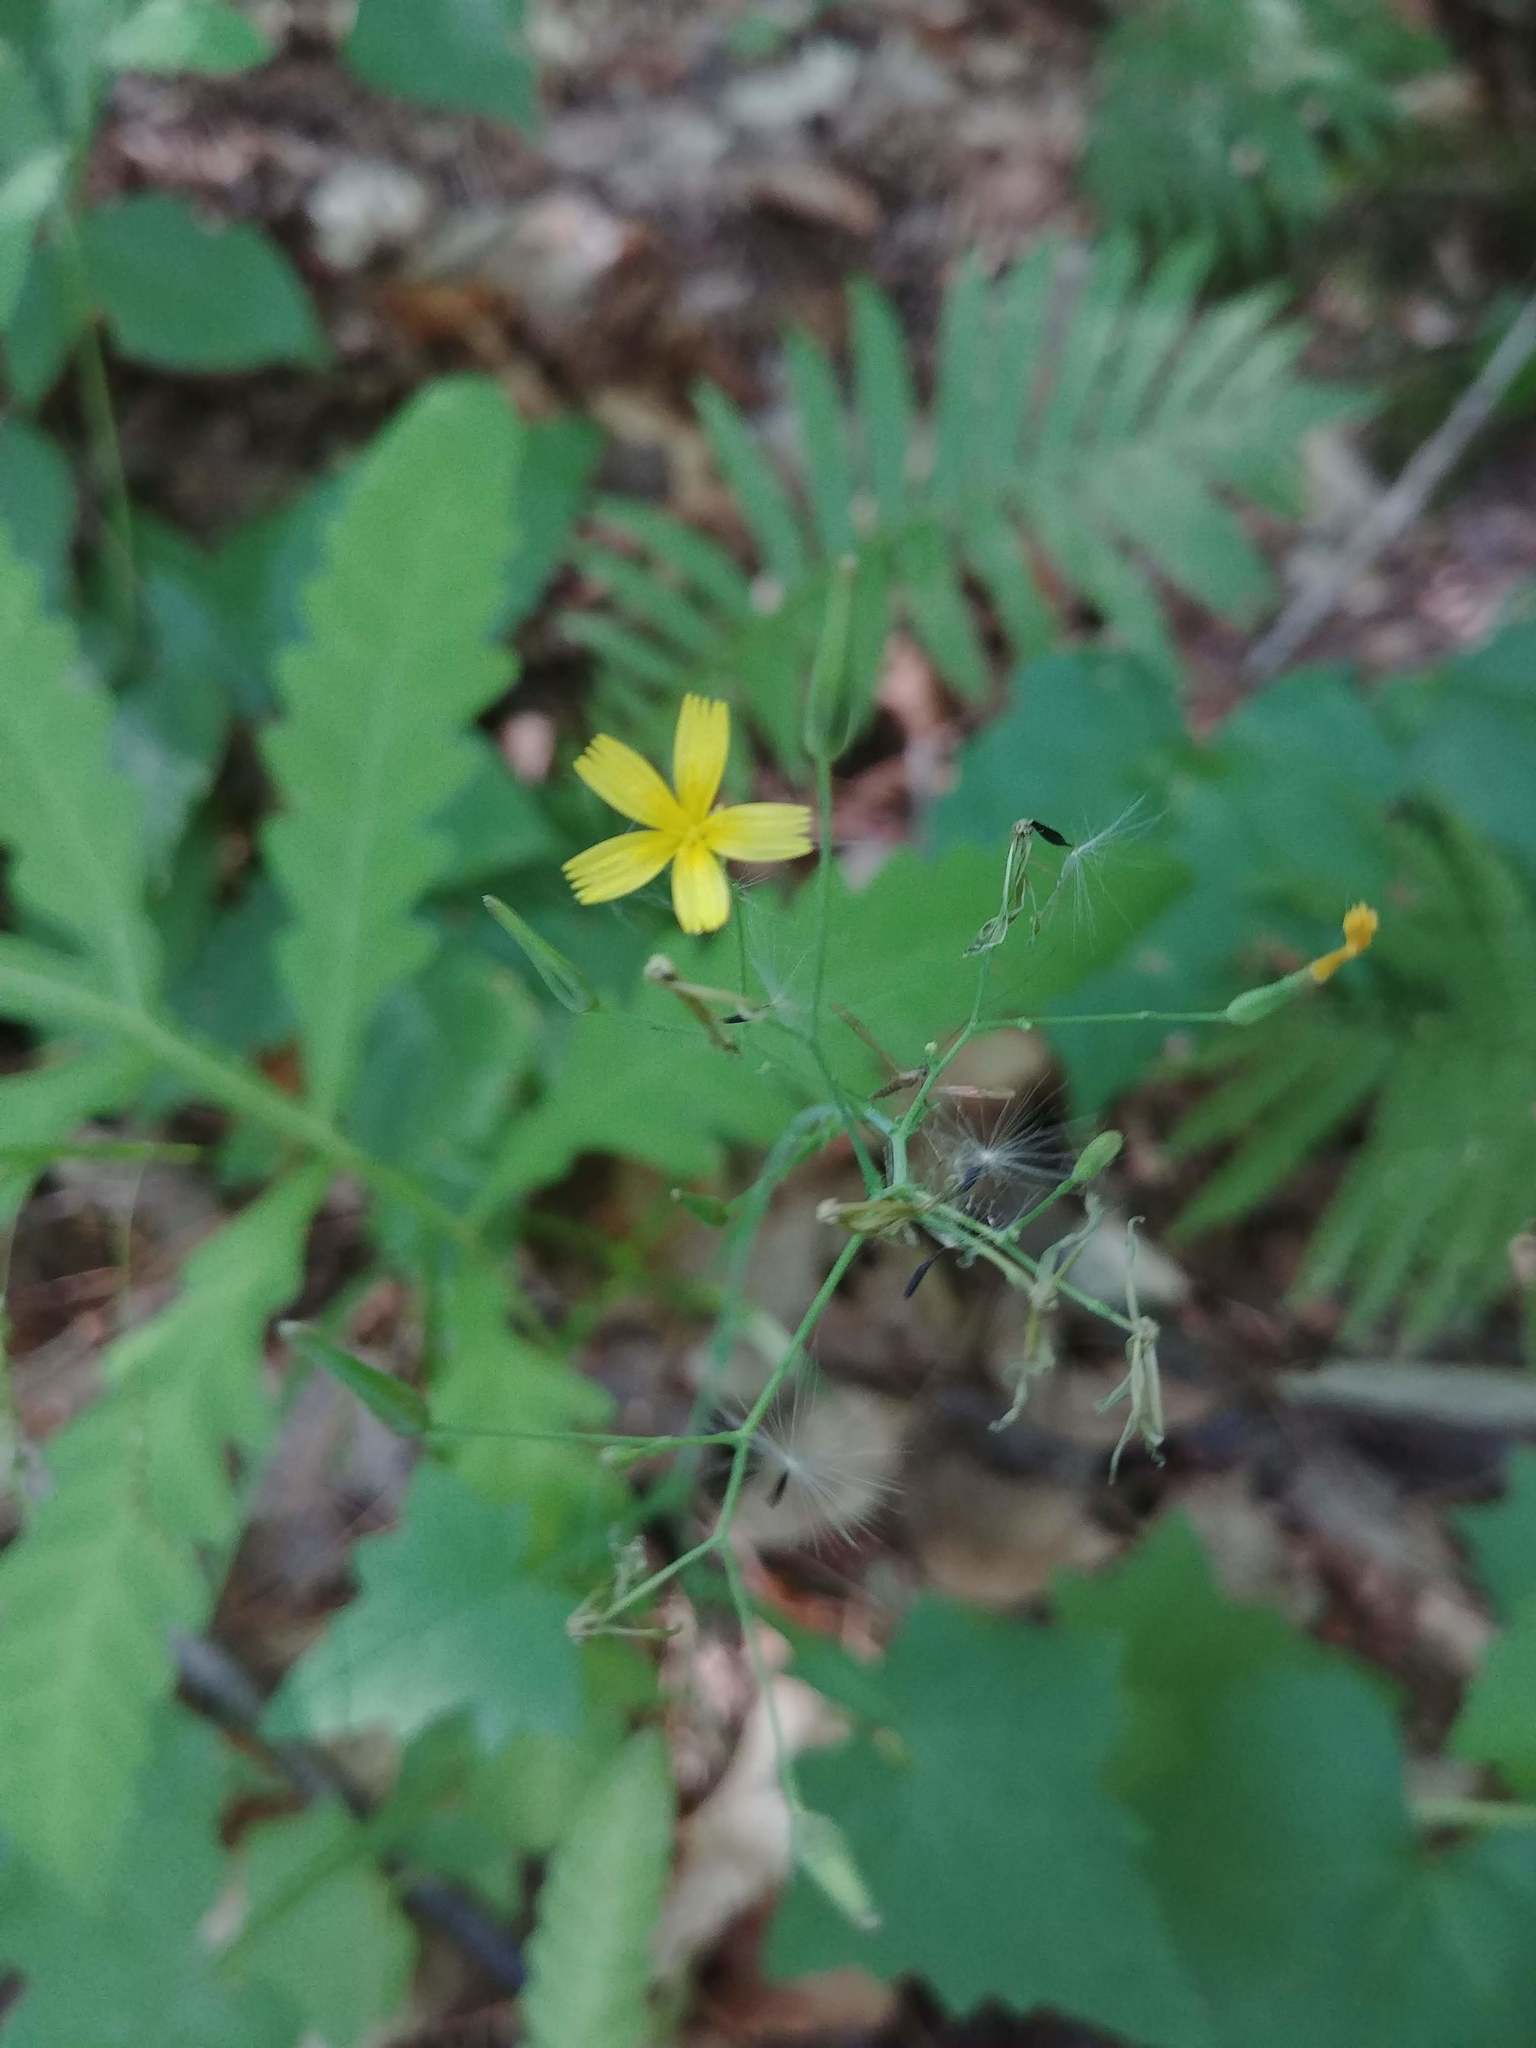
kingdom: Plantae
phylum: Tracheophyta
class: Magnoliopsida
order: Asterales
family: Asteraceae
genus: Mycelis
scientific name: Mycelis muralis
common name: Wall lettuce
